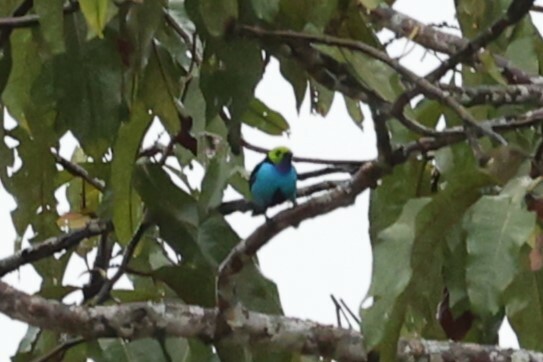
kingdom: Animalia
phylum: Chordata
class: Aves
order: Passeriformes
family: Thraupidae
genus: Tangara
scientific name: Tangara chilensis
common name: Paradise tanager
